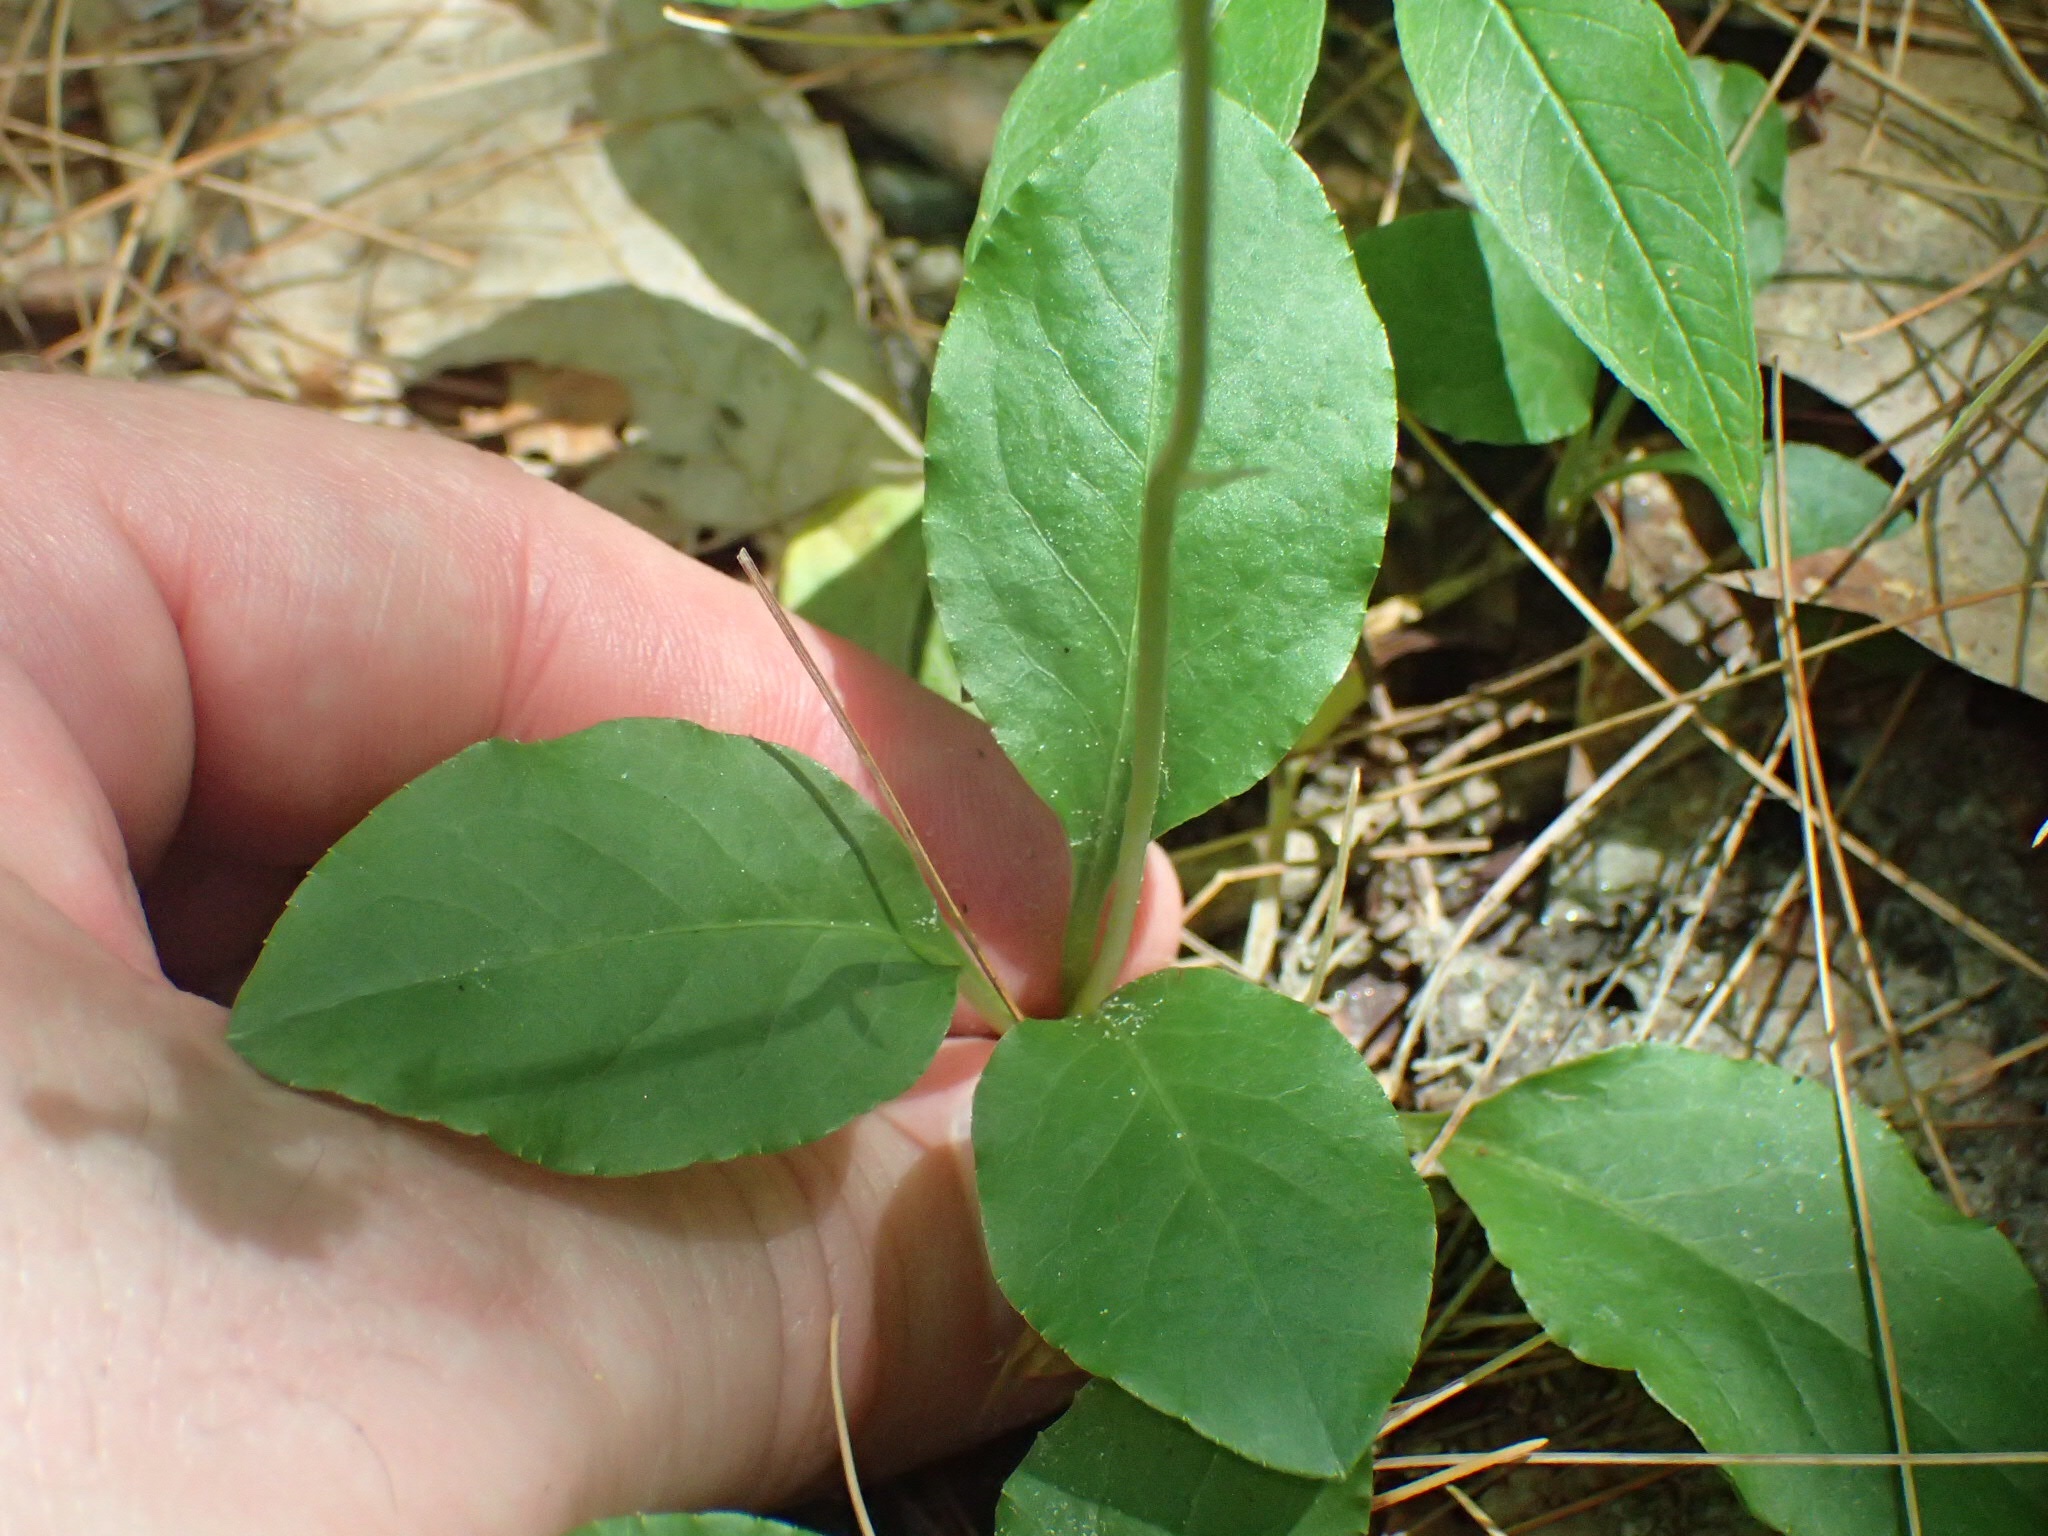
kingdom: Plantae
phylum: Tracheophyta
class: Magnoliopsida
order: Ericales
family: Ericaceae
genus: Pyrola
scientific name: Pyrola elliptica
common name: Shinleaf
